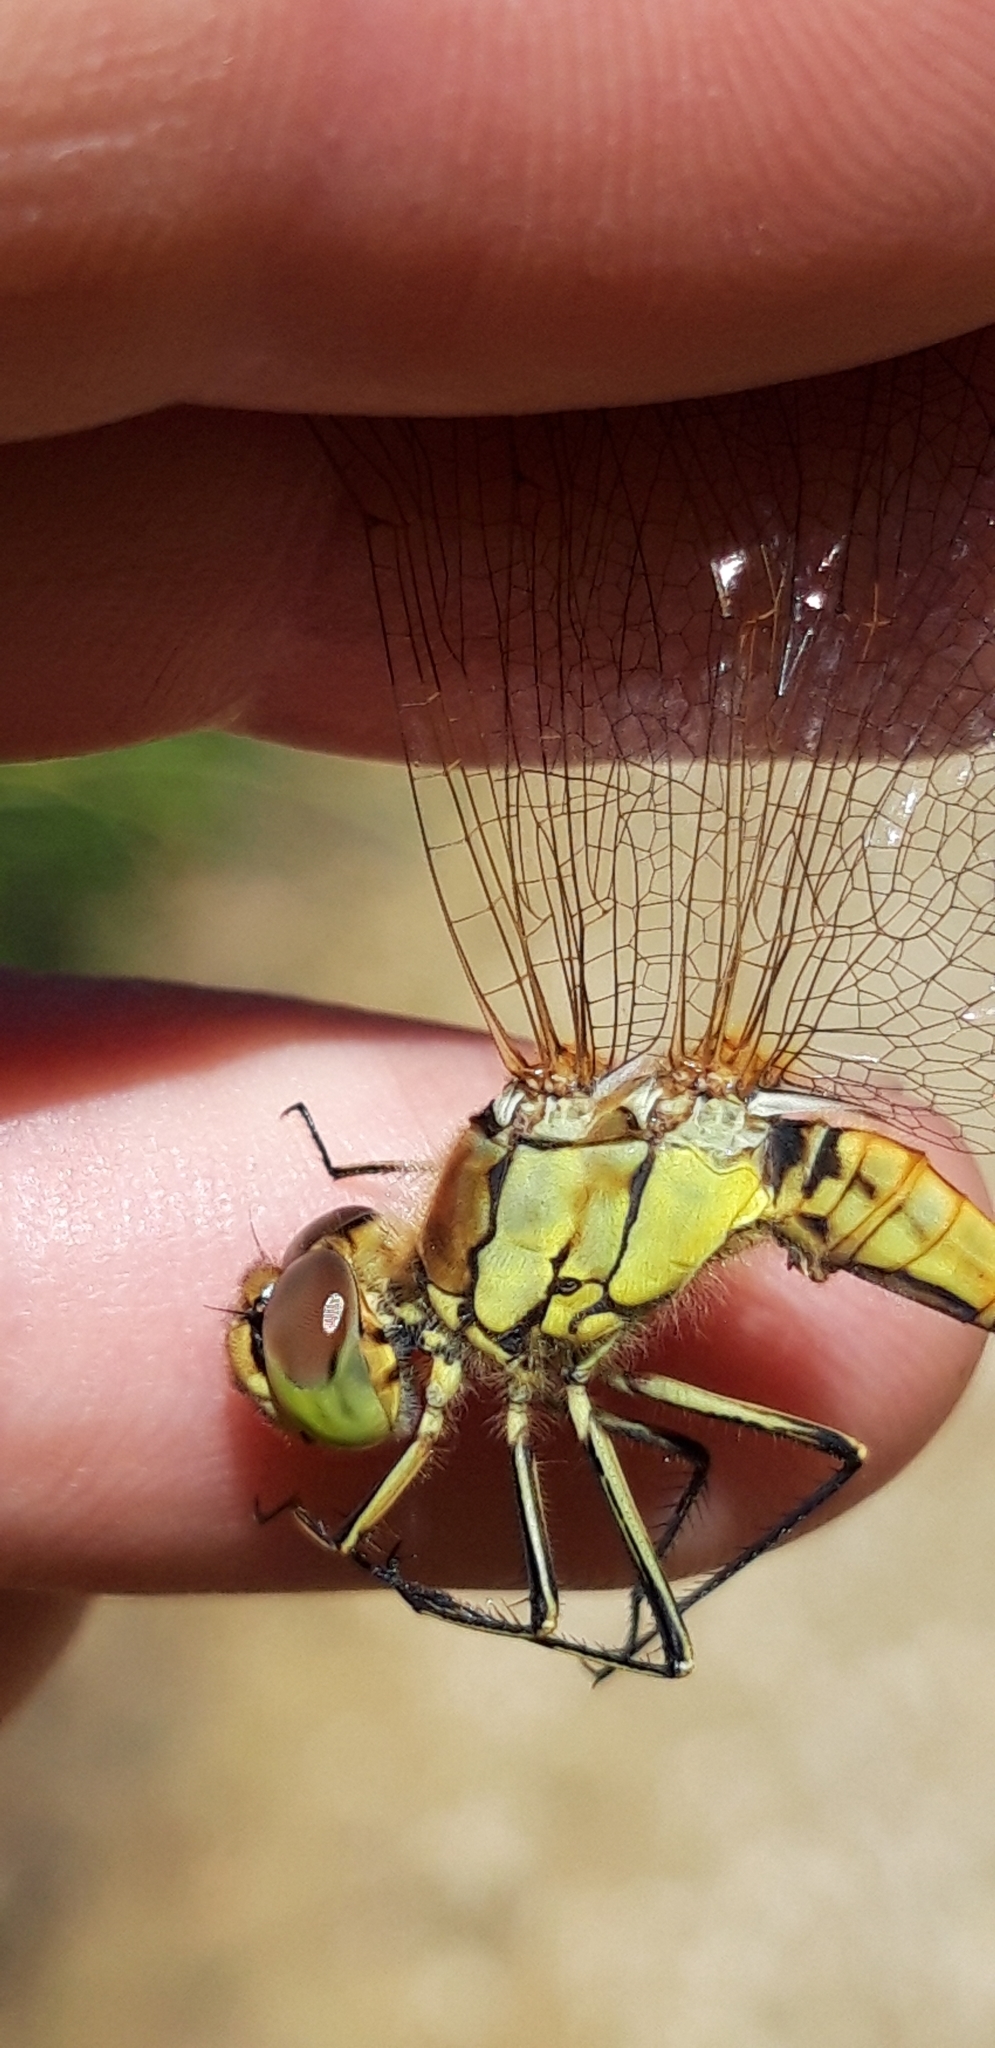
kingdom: Animalia
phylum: Arthropoda
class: Insecta
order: Odonata
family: Libellulidae
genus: Sympetrum
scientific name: Sympetrum vulgatum
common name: Vagrant darter
